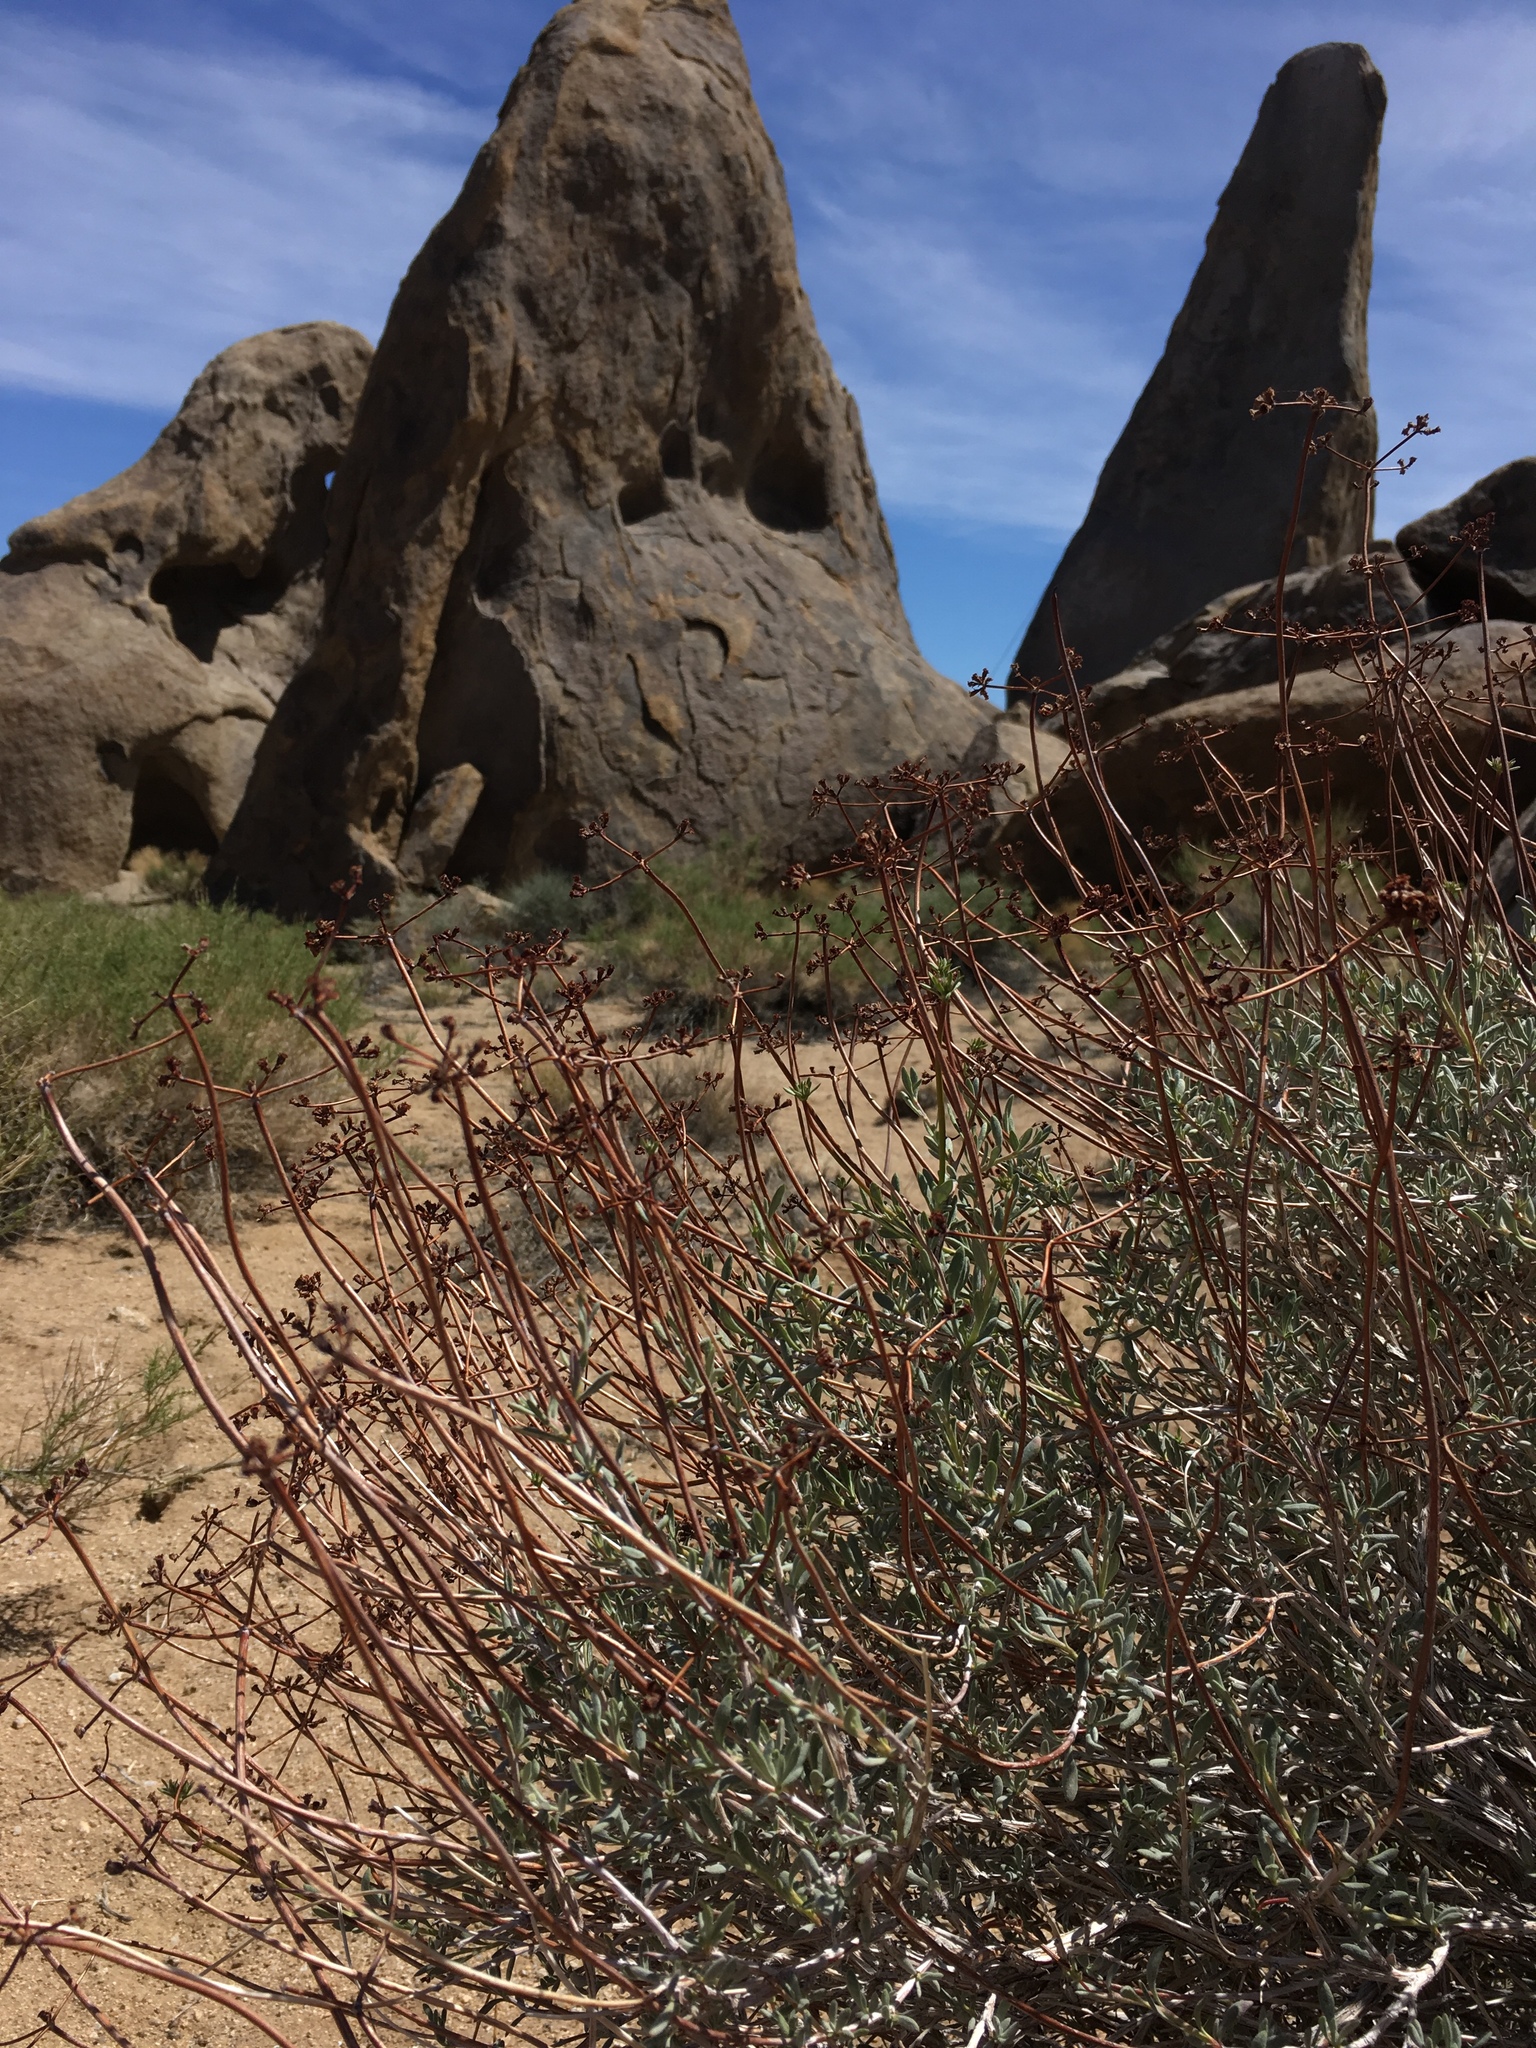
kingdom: Plantae
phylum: Tracheophyta
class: Magnoliopsida
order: Caryophyllales
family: Polygonaceae
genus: Eriogonum
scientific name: Eriogonum fasciculatum
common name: California wild buckwheat
